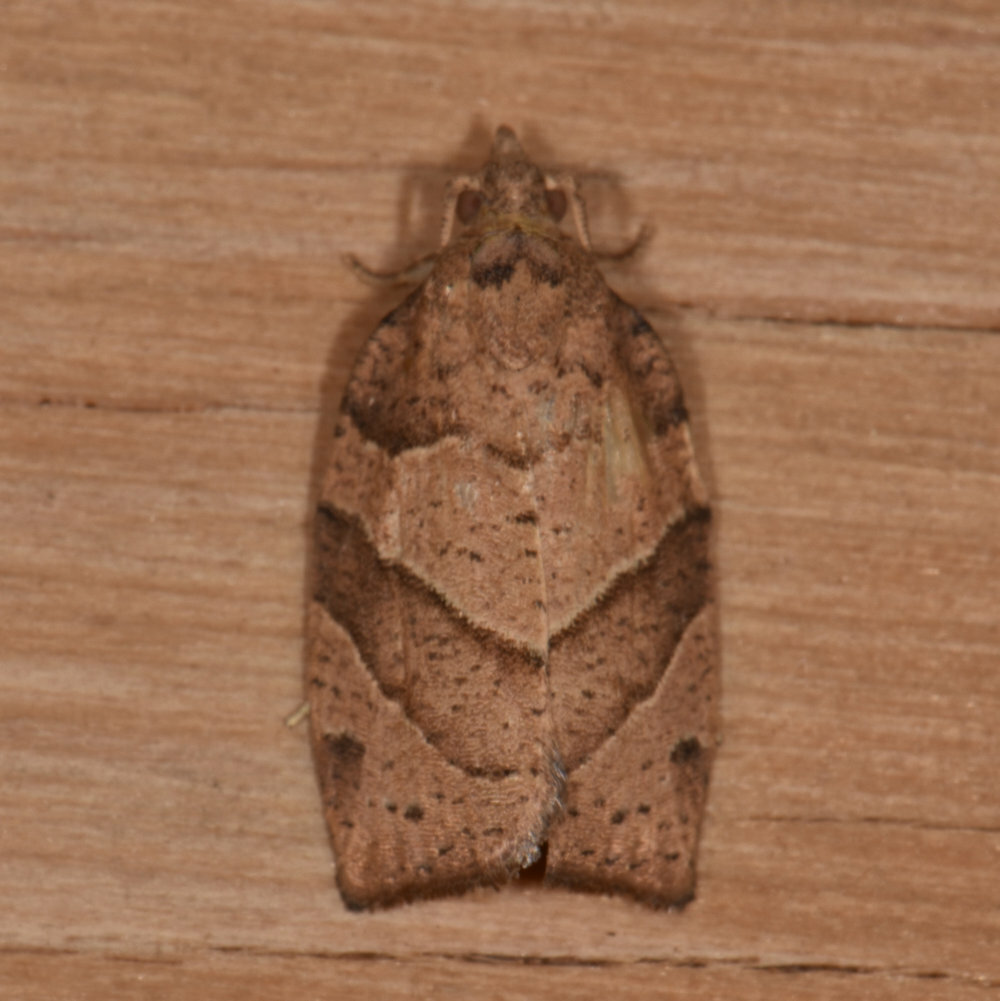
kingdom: Animalia
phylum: Arthropoda
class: Insecta
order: Lepidoptera
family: Tortricidae
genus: Pandemis
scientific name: Pandemis lamprosana
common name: Woodgrain leafroller moth
